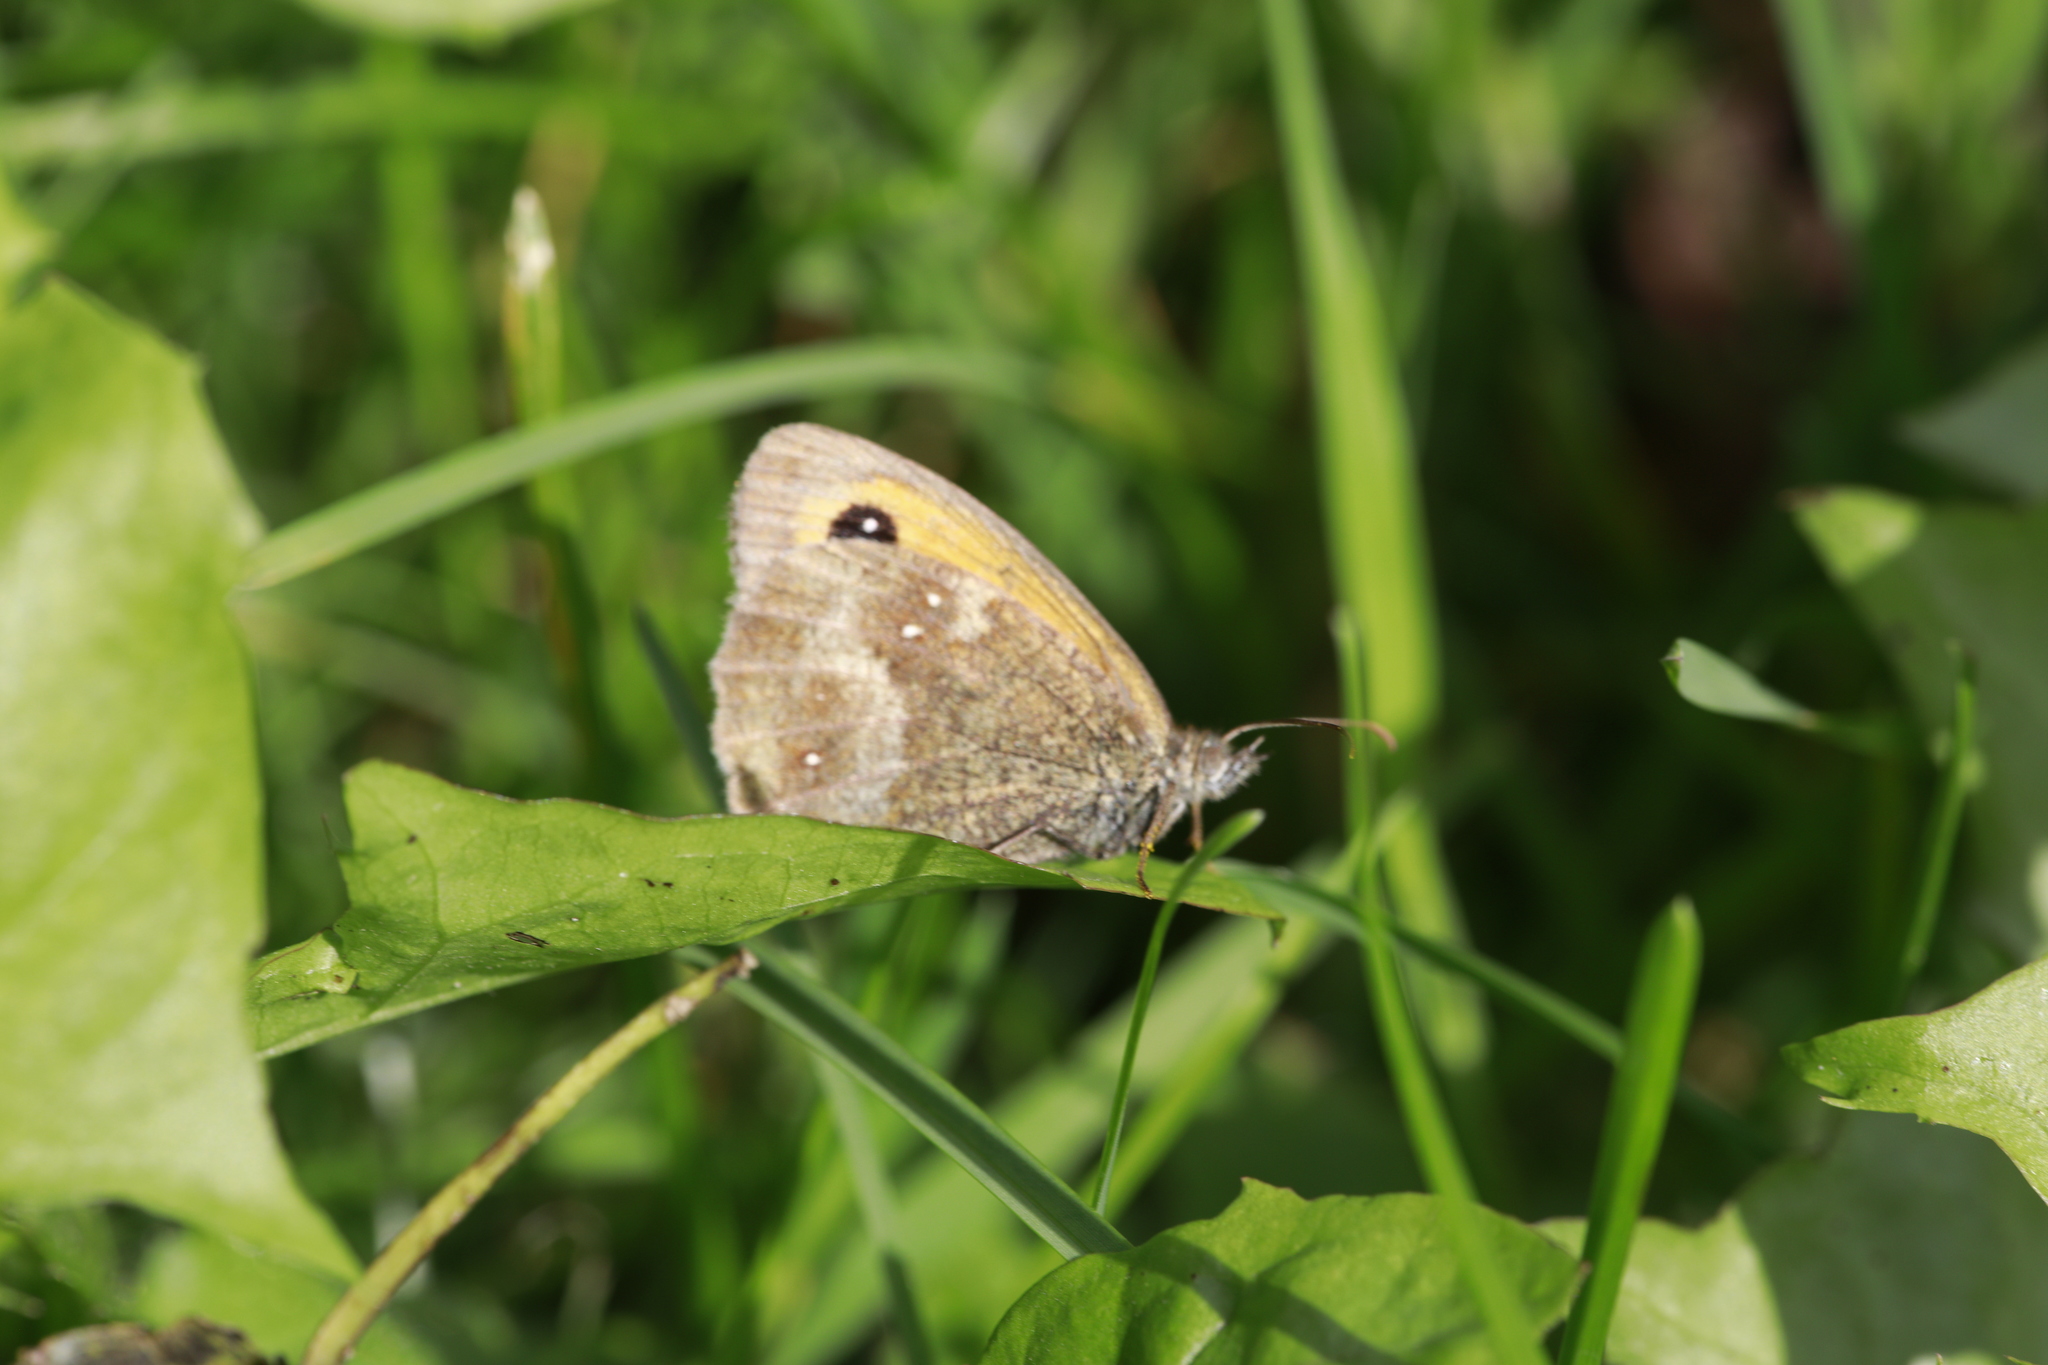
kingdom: Animalia
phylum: Arthropoda
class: Insecta
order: Lepidoptera
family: Nymphalidae
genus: Pyronia
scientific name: Pyronia tithonus
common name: Gatekeeper
